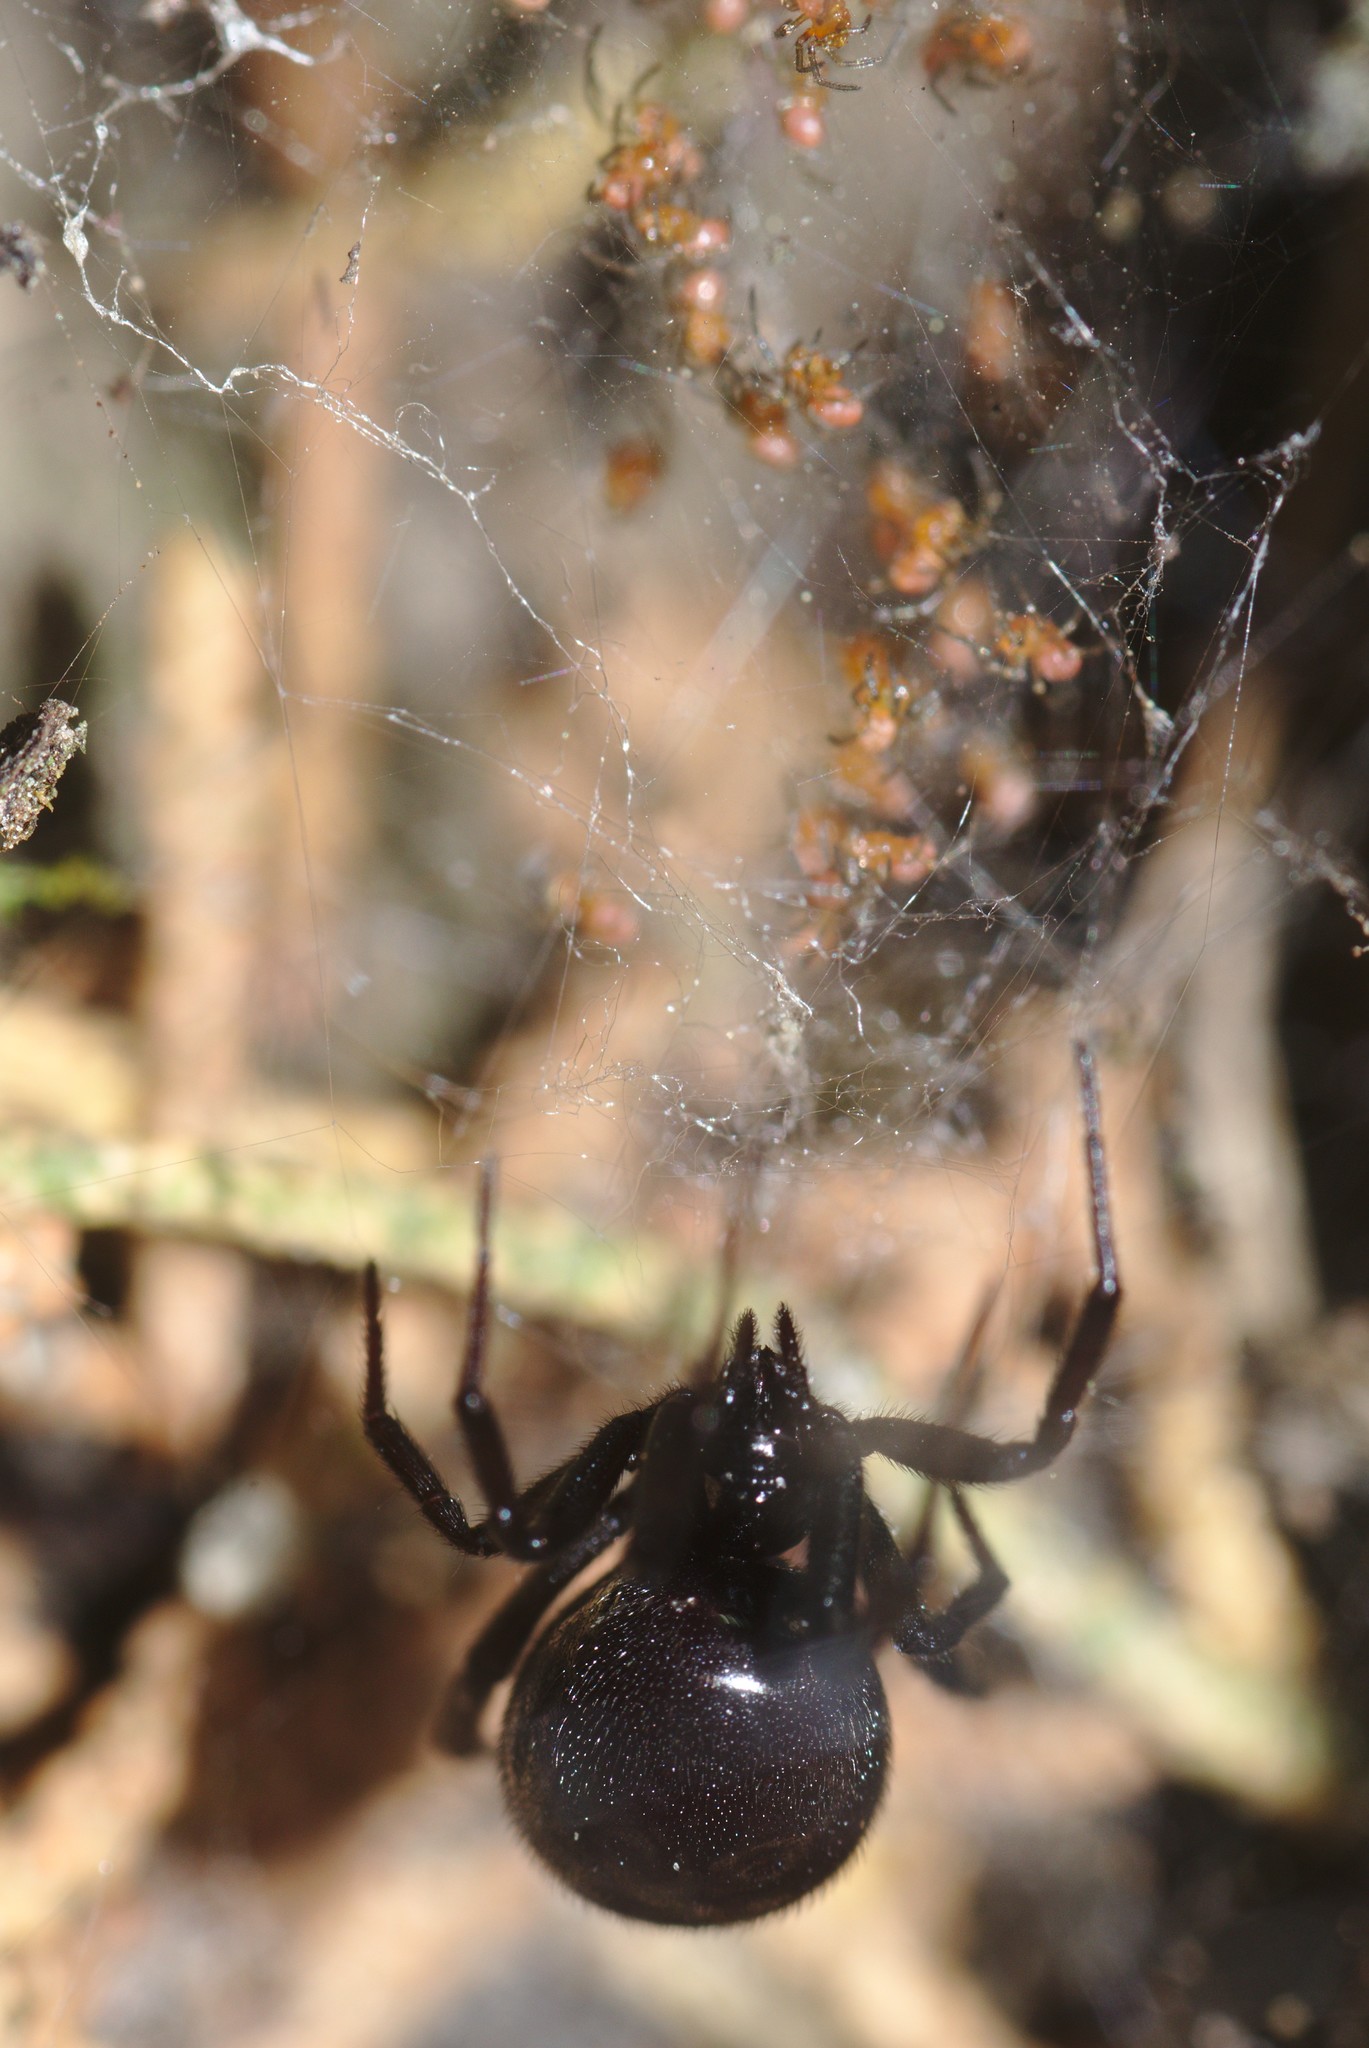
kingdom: Animalia
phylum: Arthropoda
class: Arachnida
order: Araneae
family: Theridiidae
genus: Steatoda
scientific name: Steatoda capensis
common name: Cobweb weaver
